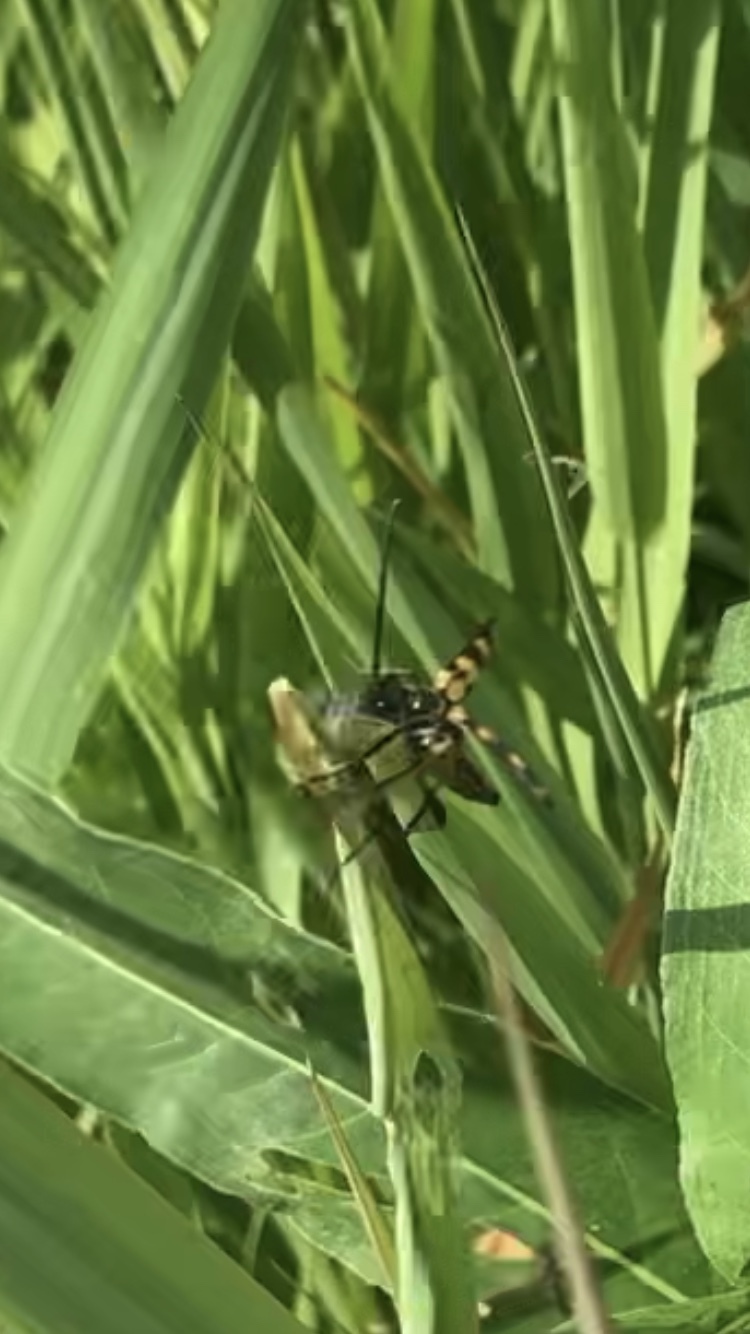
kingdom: Animalia
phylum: Arthropoda
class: Insecta
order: Coleoptera
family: Cerambycidae
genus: Leptura
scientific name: Leptura quadrifasciata
